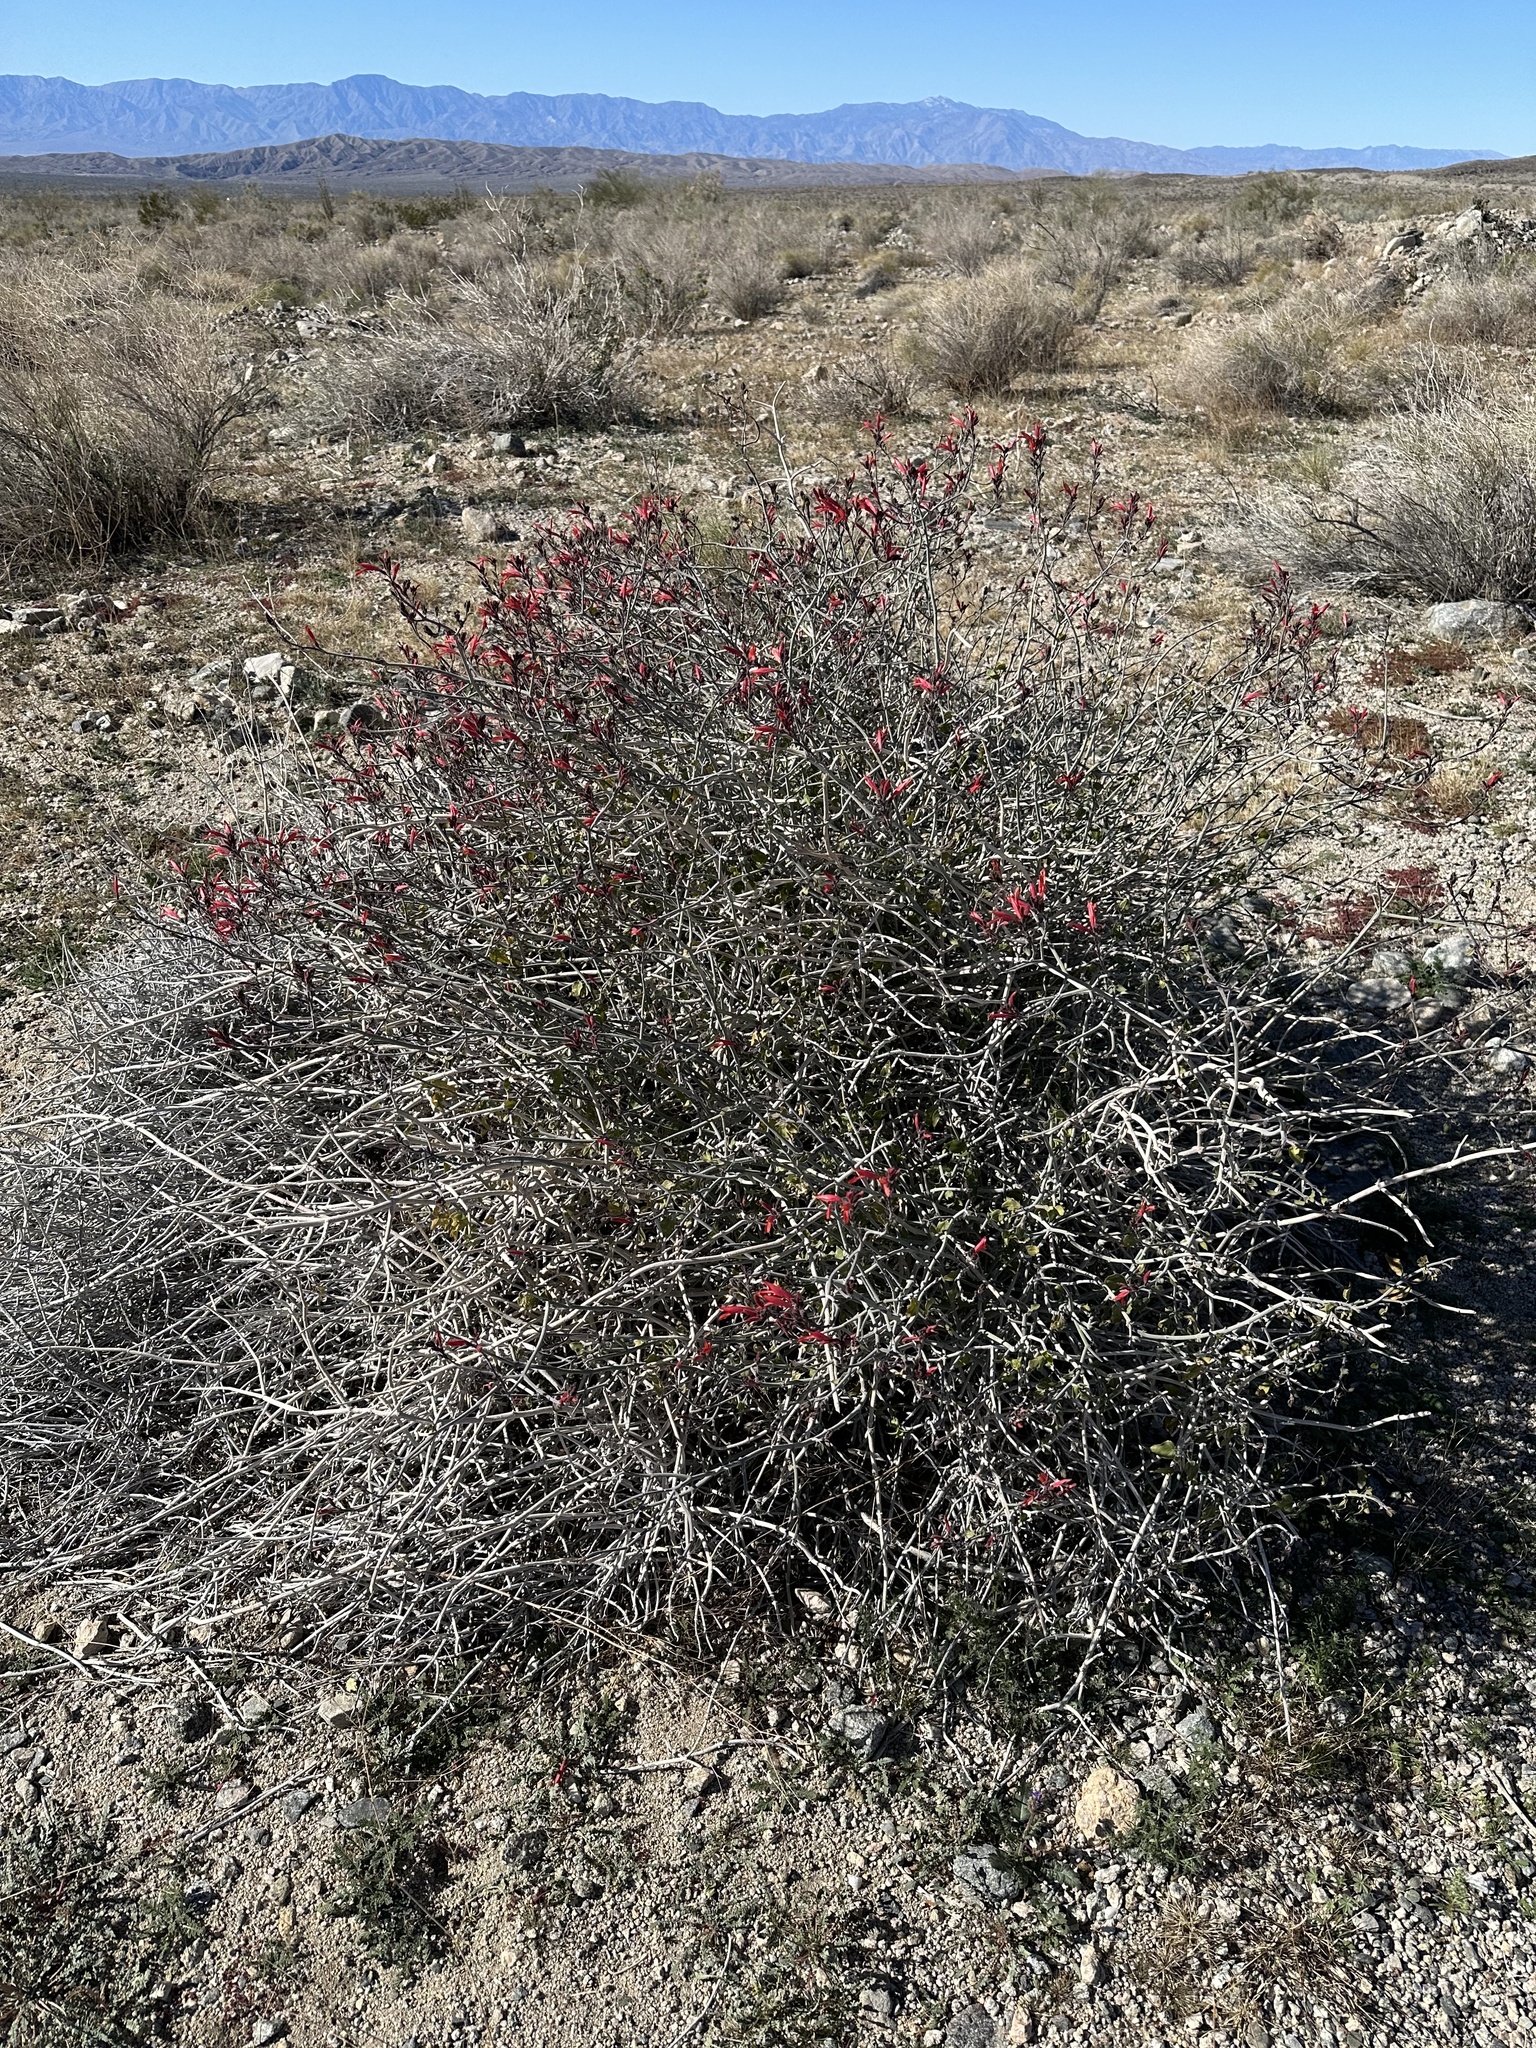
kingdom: Plantae
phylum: Tracheophyta
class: Magnoliopsida
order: Lamiales
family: Acanthaceae
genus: Justicia
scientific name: Justicia californica
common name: Chuparosa-honeysuckle
